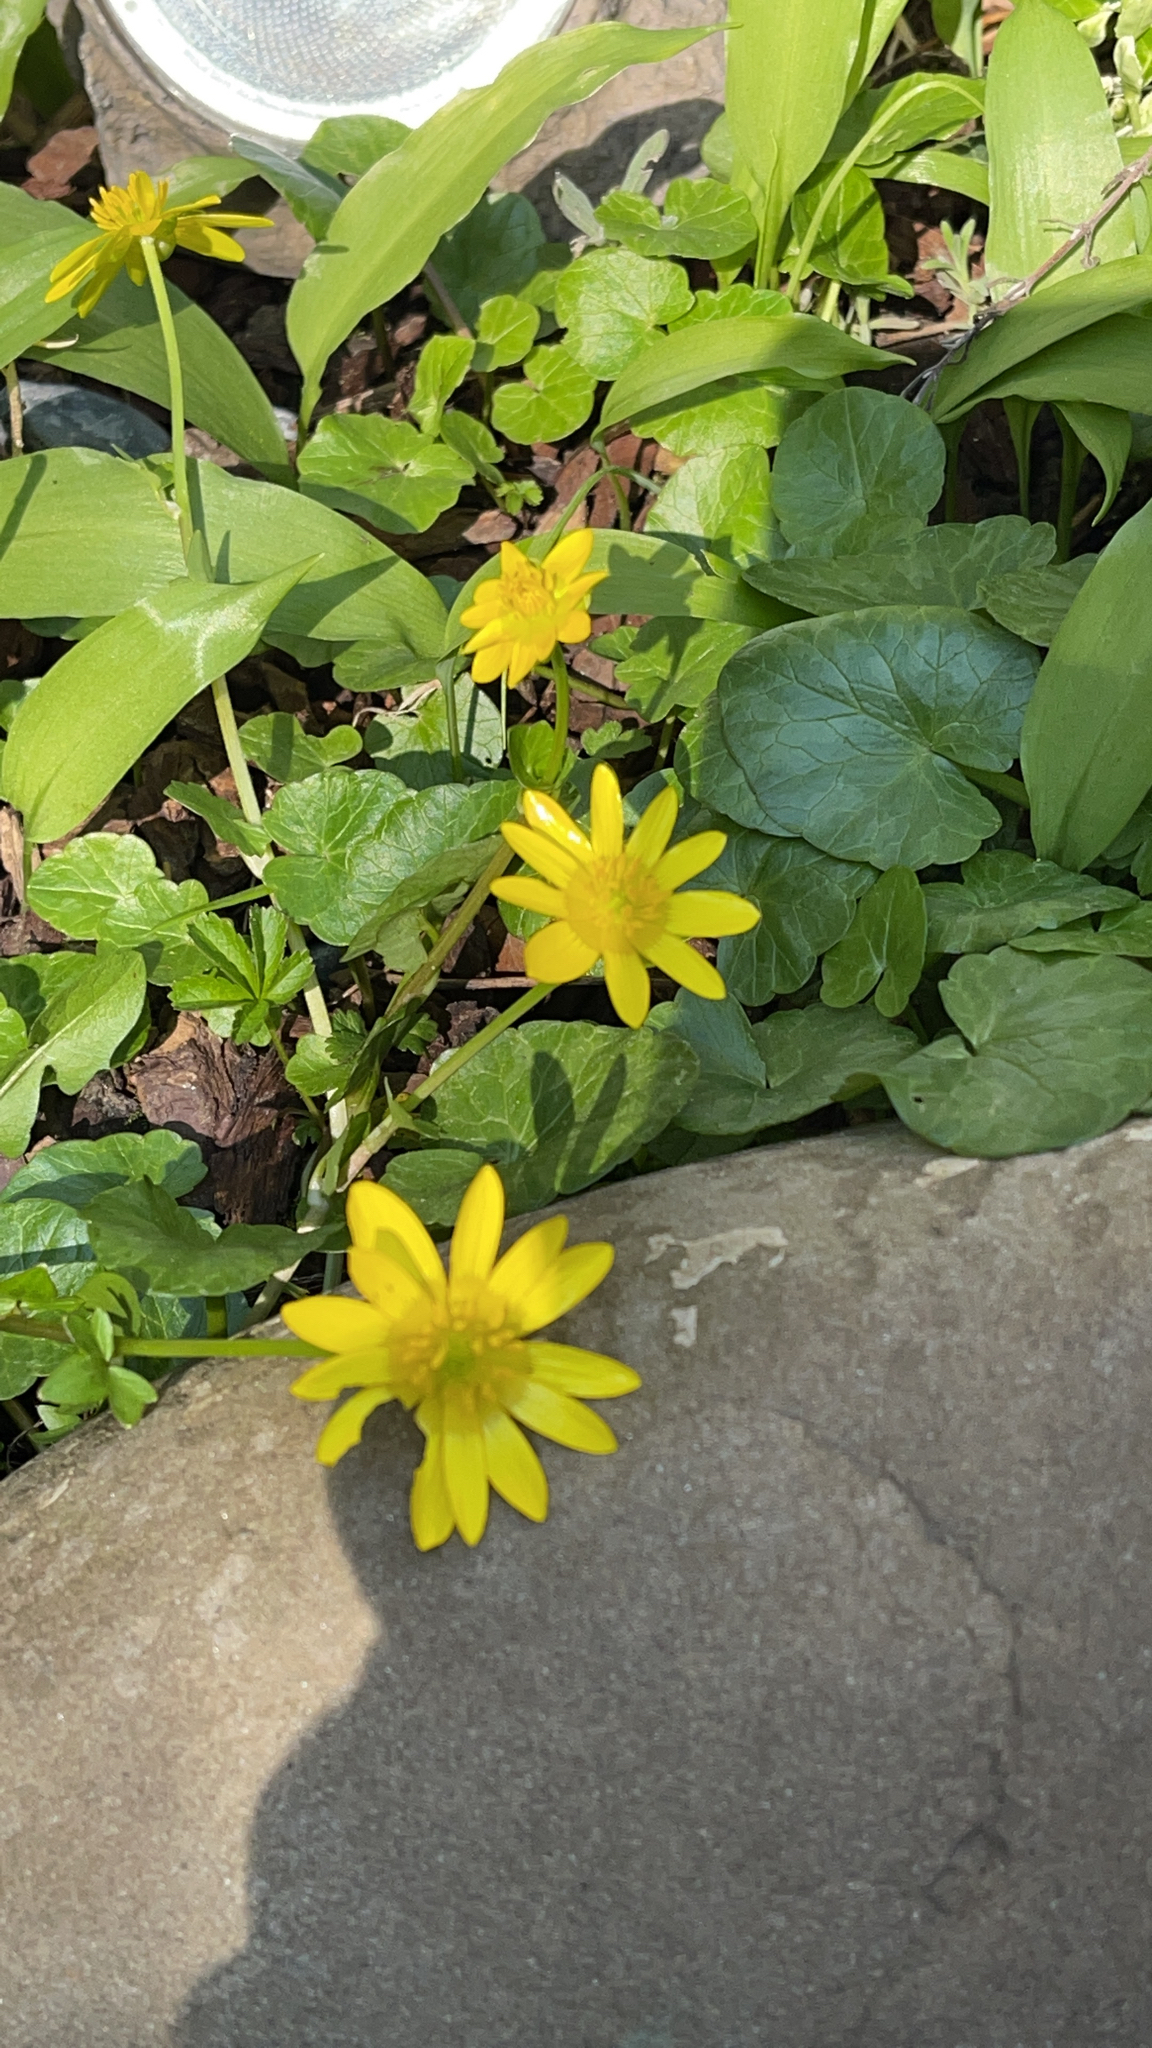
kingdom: Plantae
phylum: Tracheophyta
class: Magnoliopsida
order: Ranunculales
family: Ranunculaceae
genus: Ficaria
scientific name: Ficaria verna
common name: Lesser celandine
